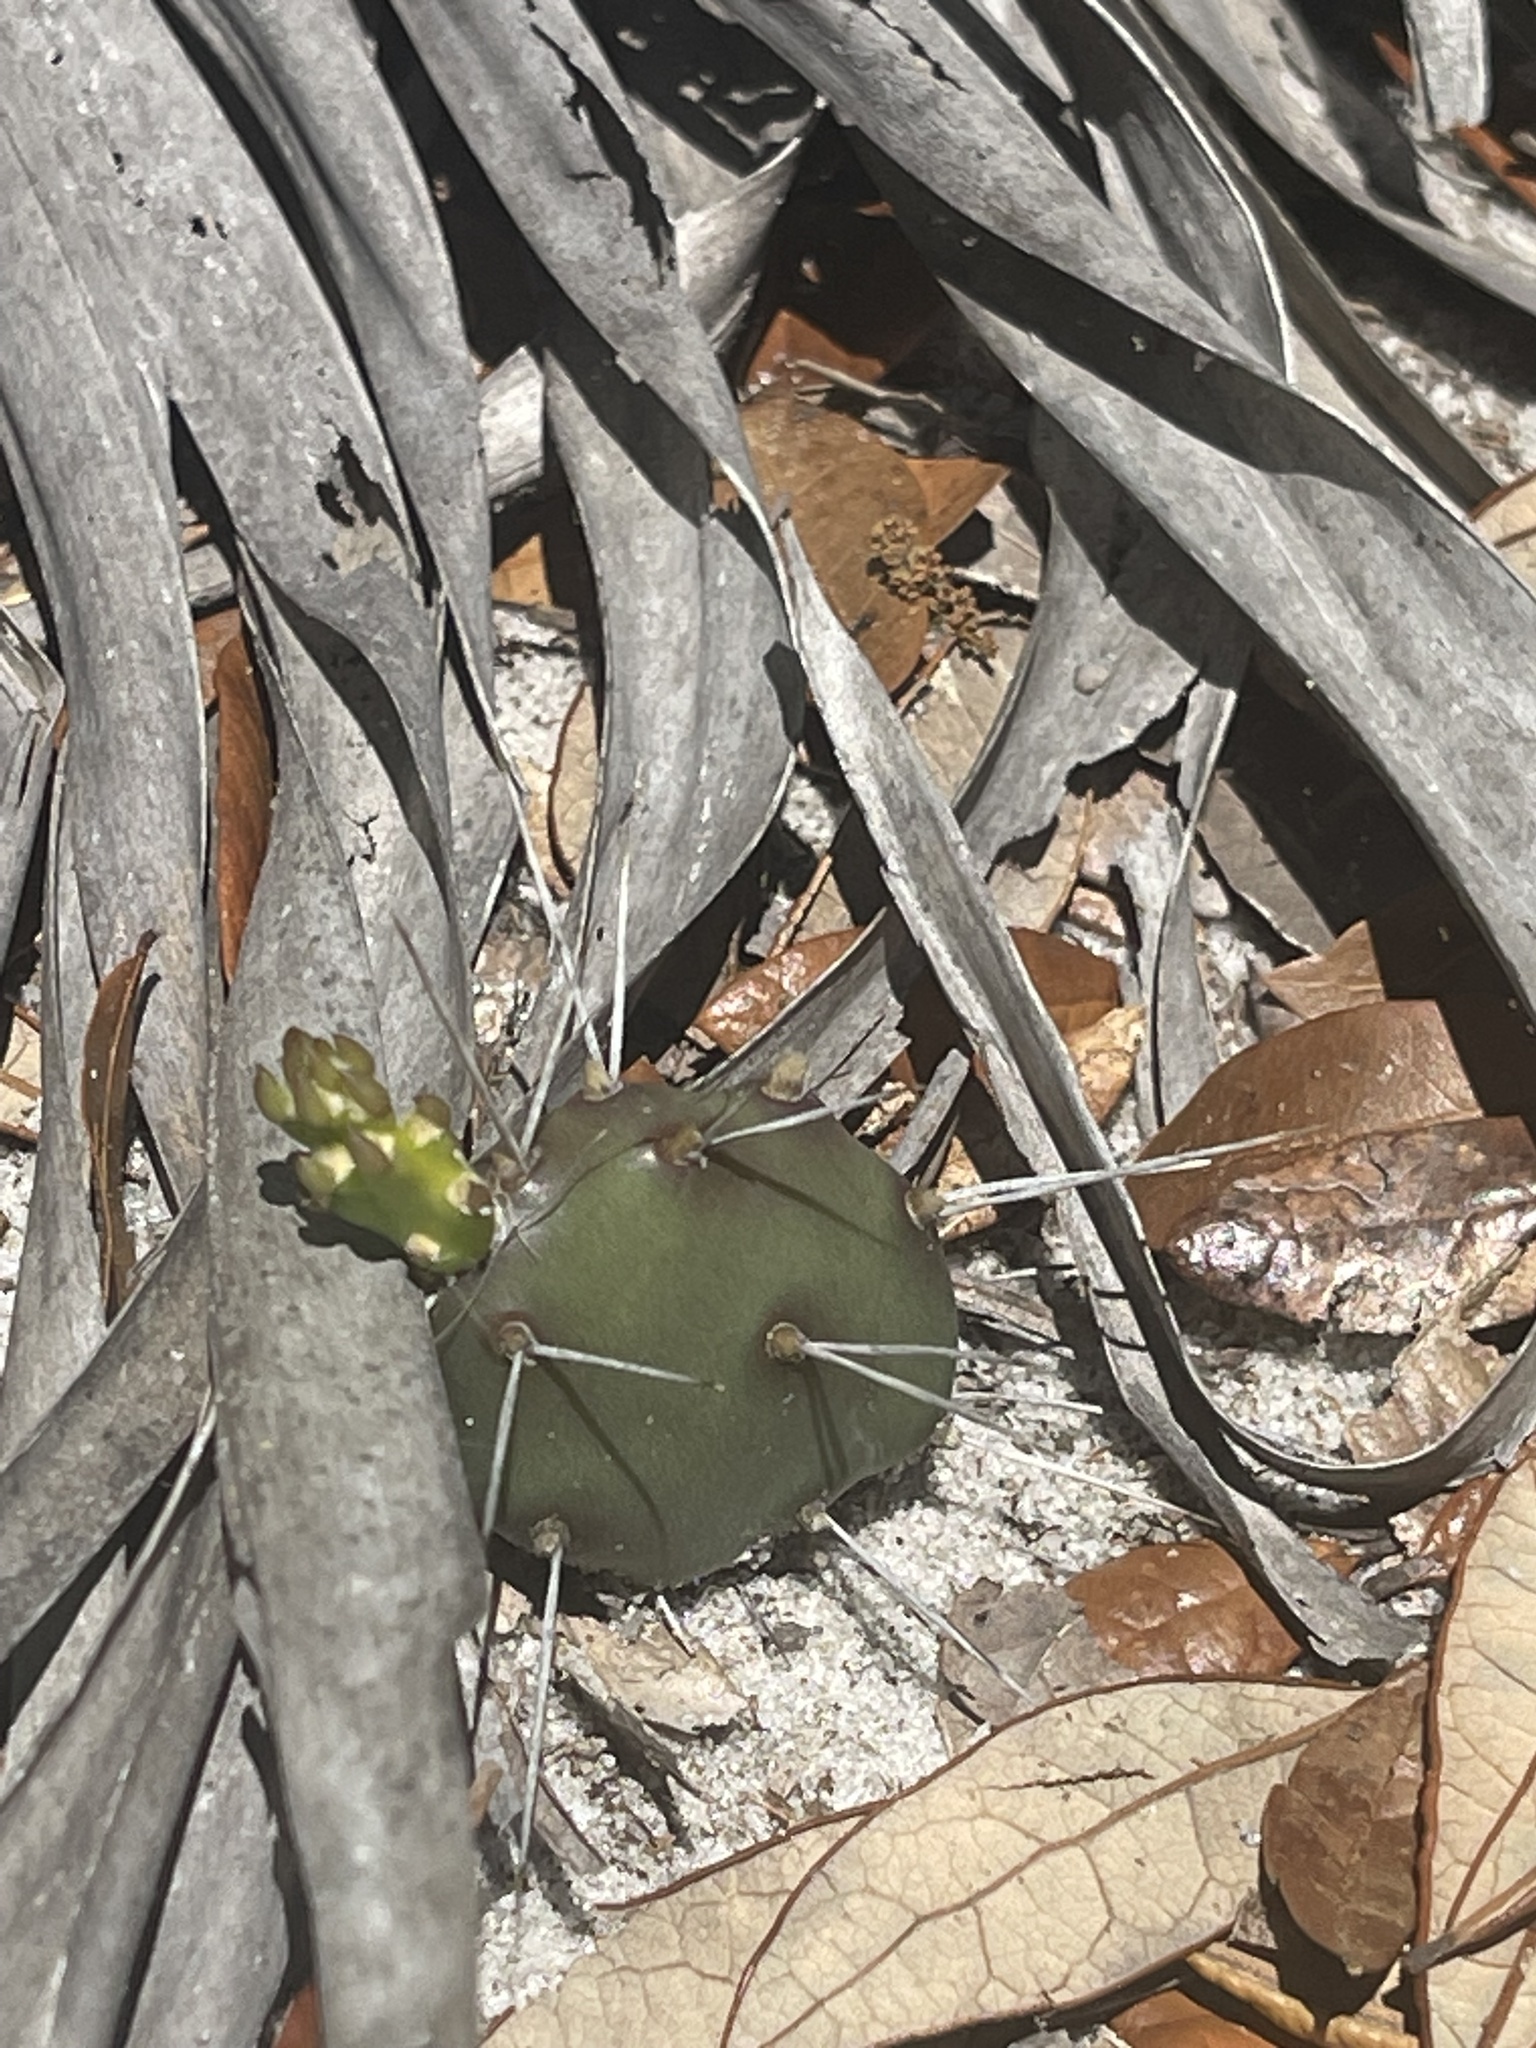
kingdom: Plantae
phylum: Tracheophyta
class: Magnoliopsida
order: Caryophyllales
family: Cactaceae
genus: Opuntia
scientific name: Opuntia drummondii
